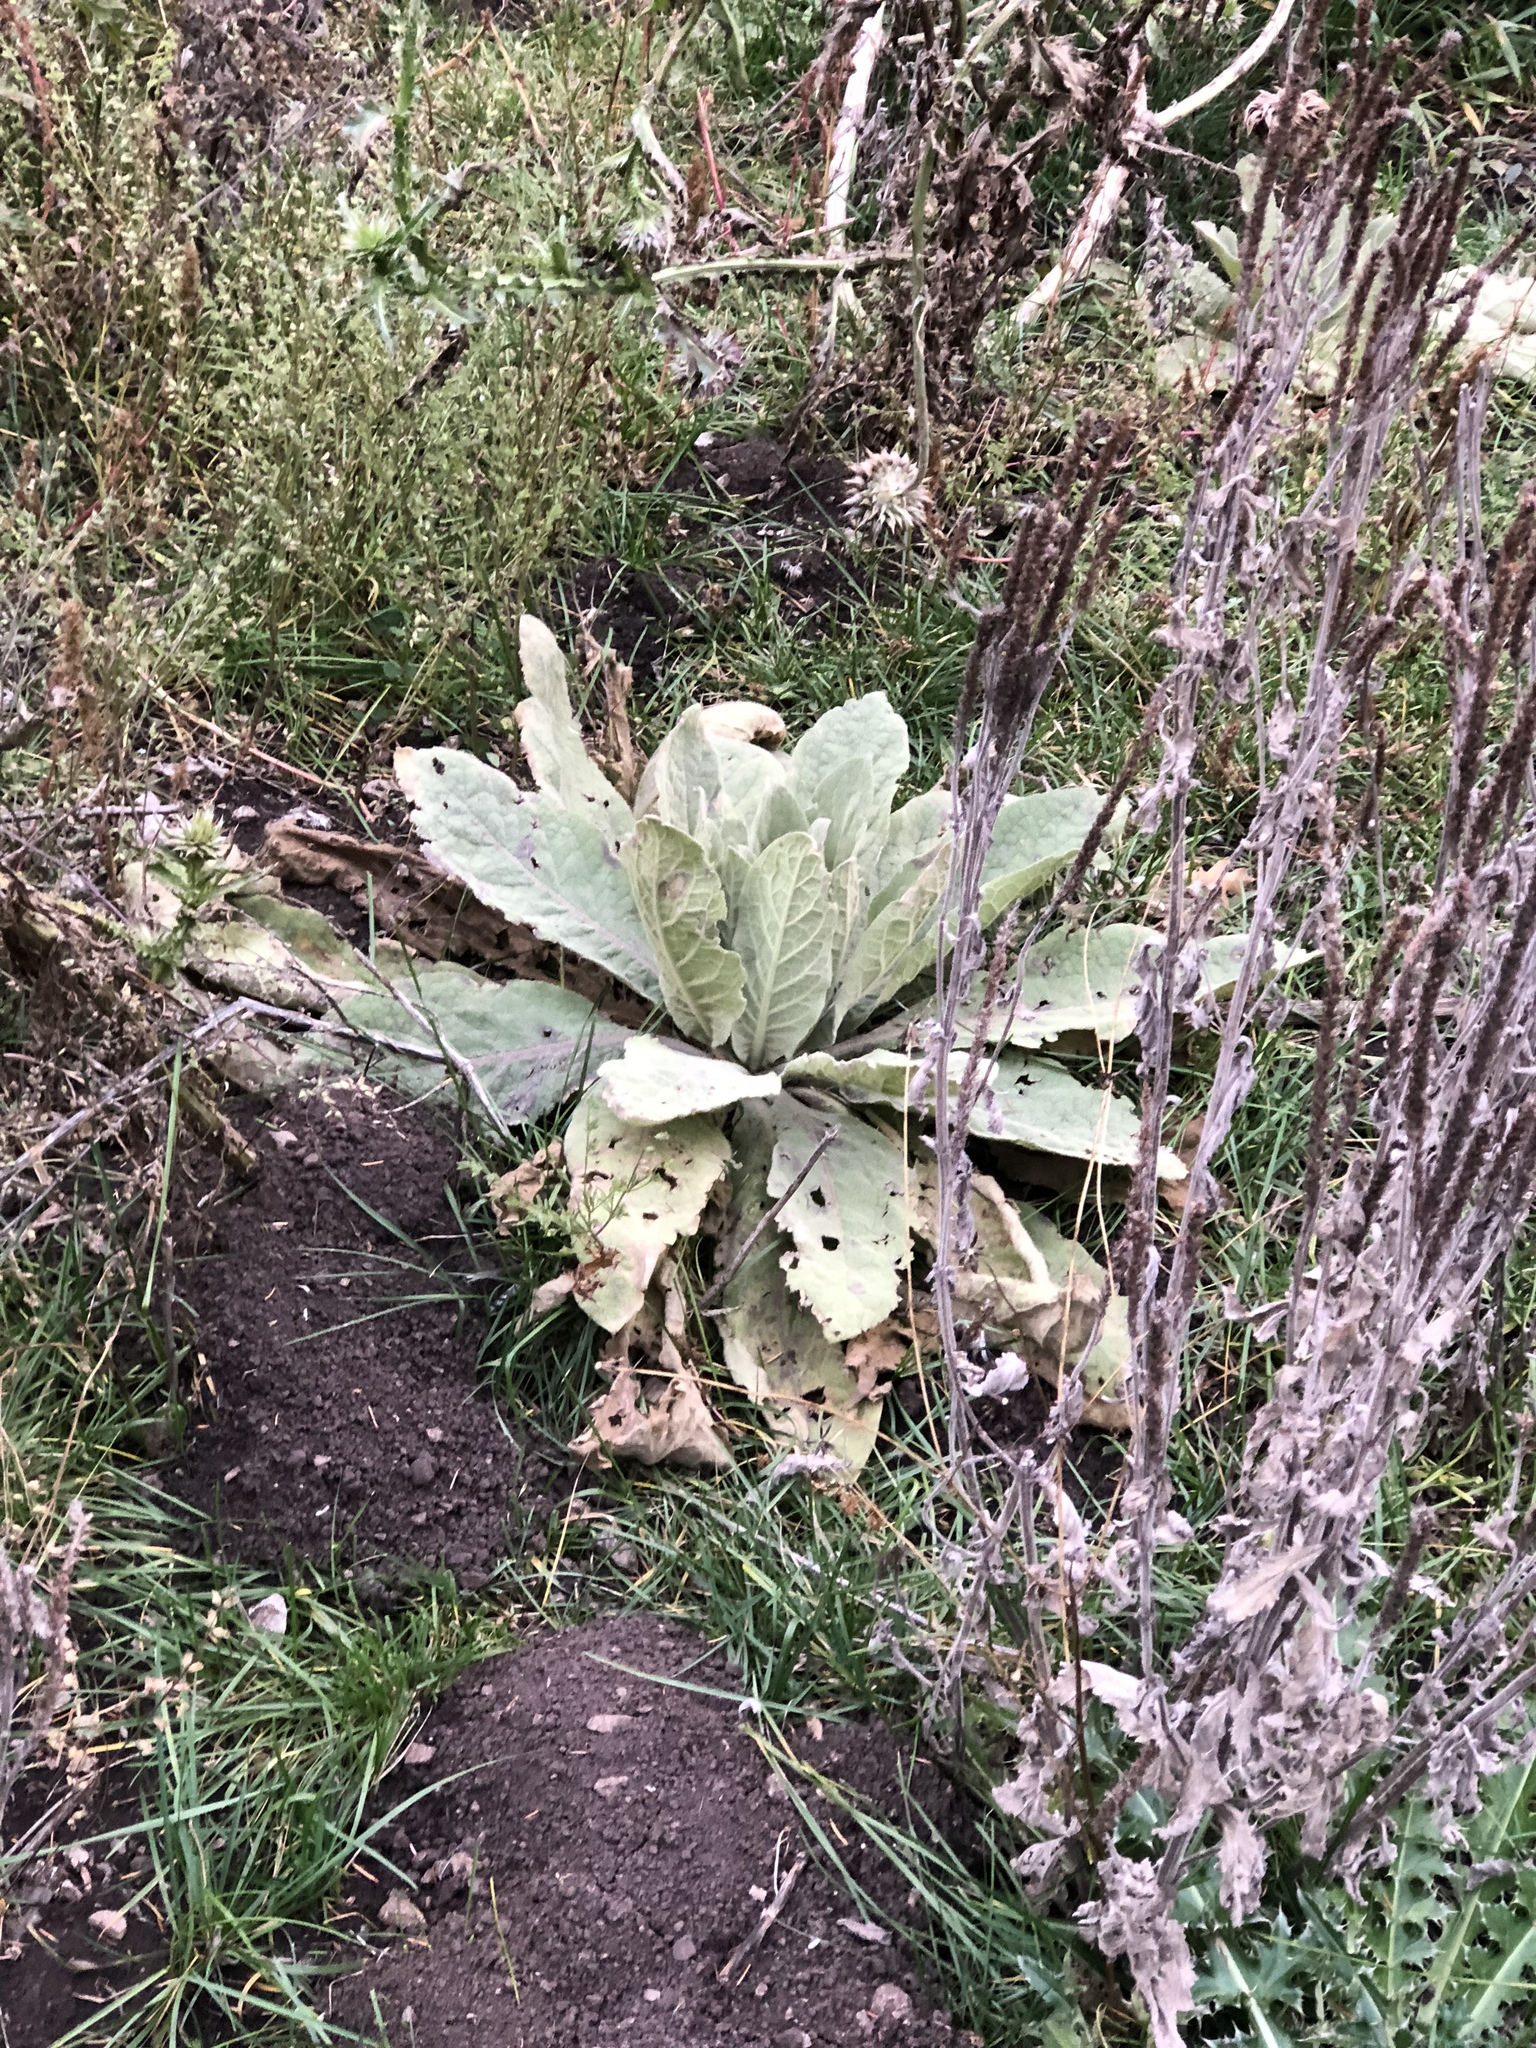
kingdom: Plantae
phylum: Tracheophyta
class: Magnoliopsida
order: Lamiales
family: Scrophulariaceae
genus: Verbascum
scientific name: Verbascum thapsus
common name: Common mullein
